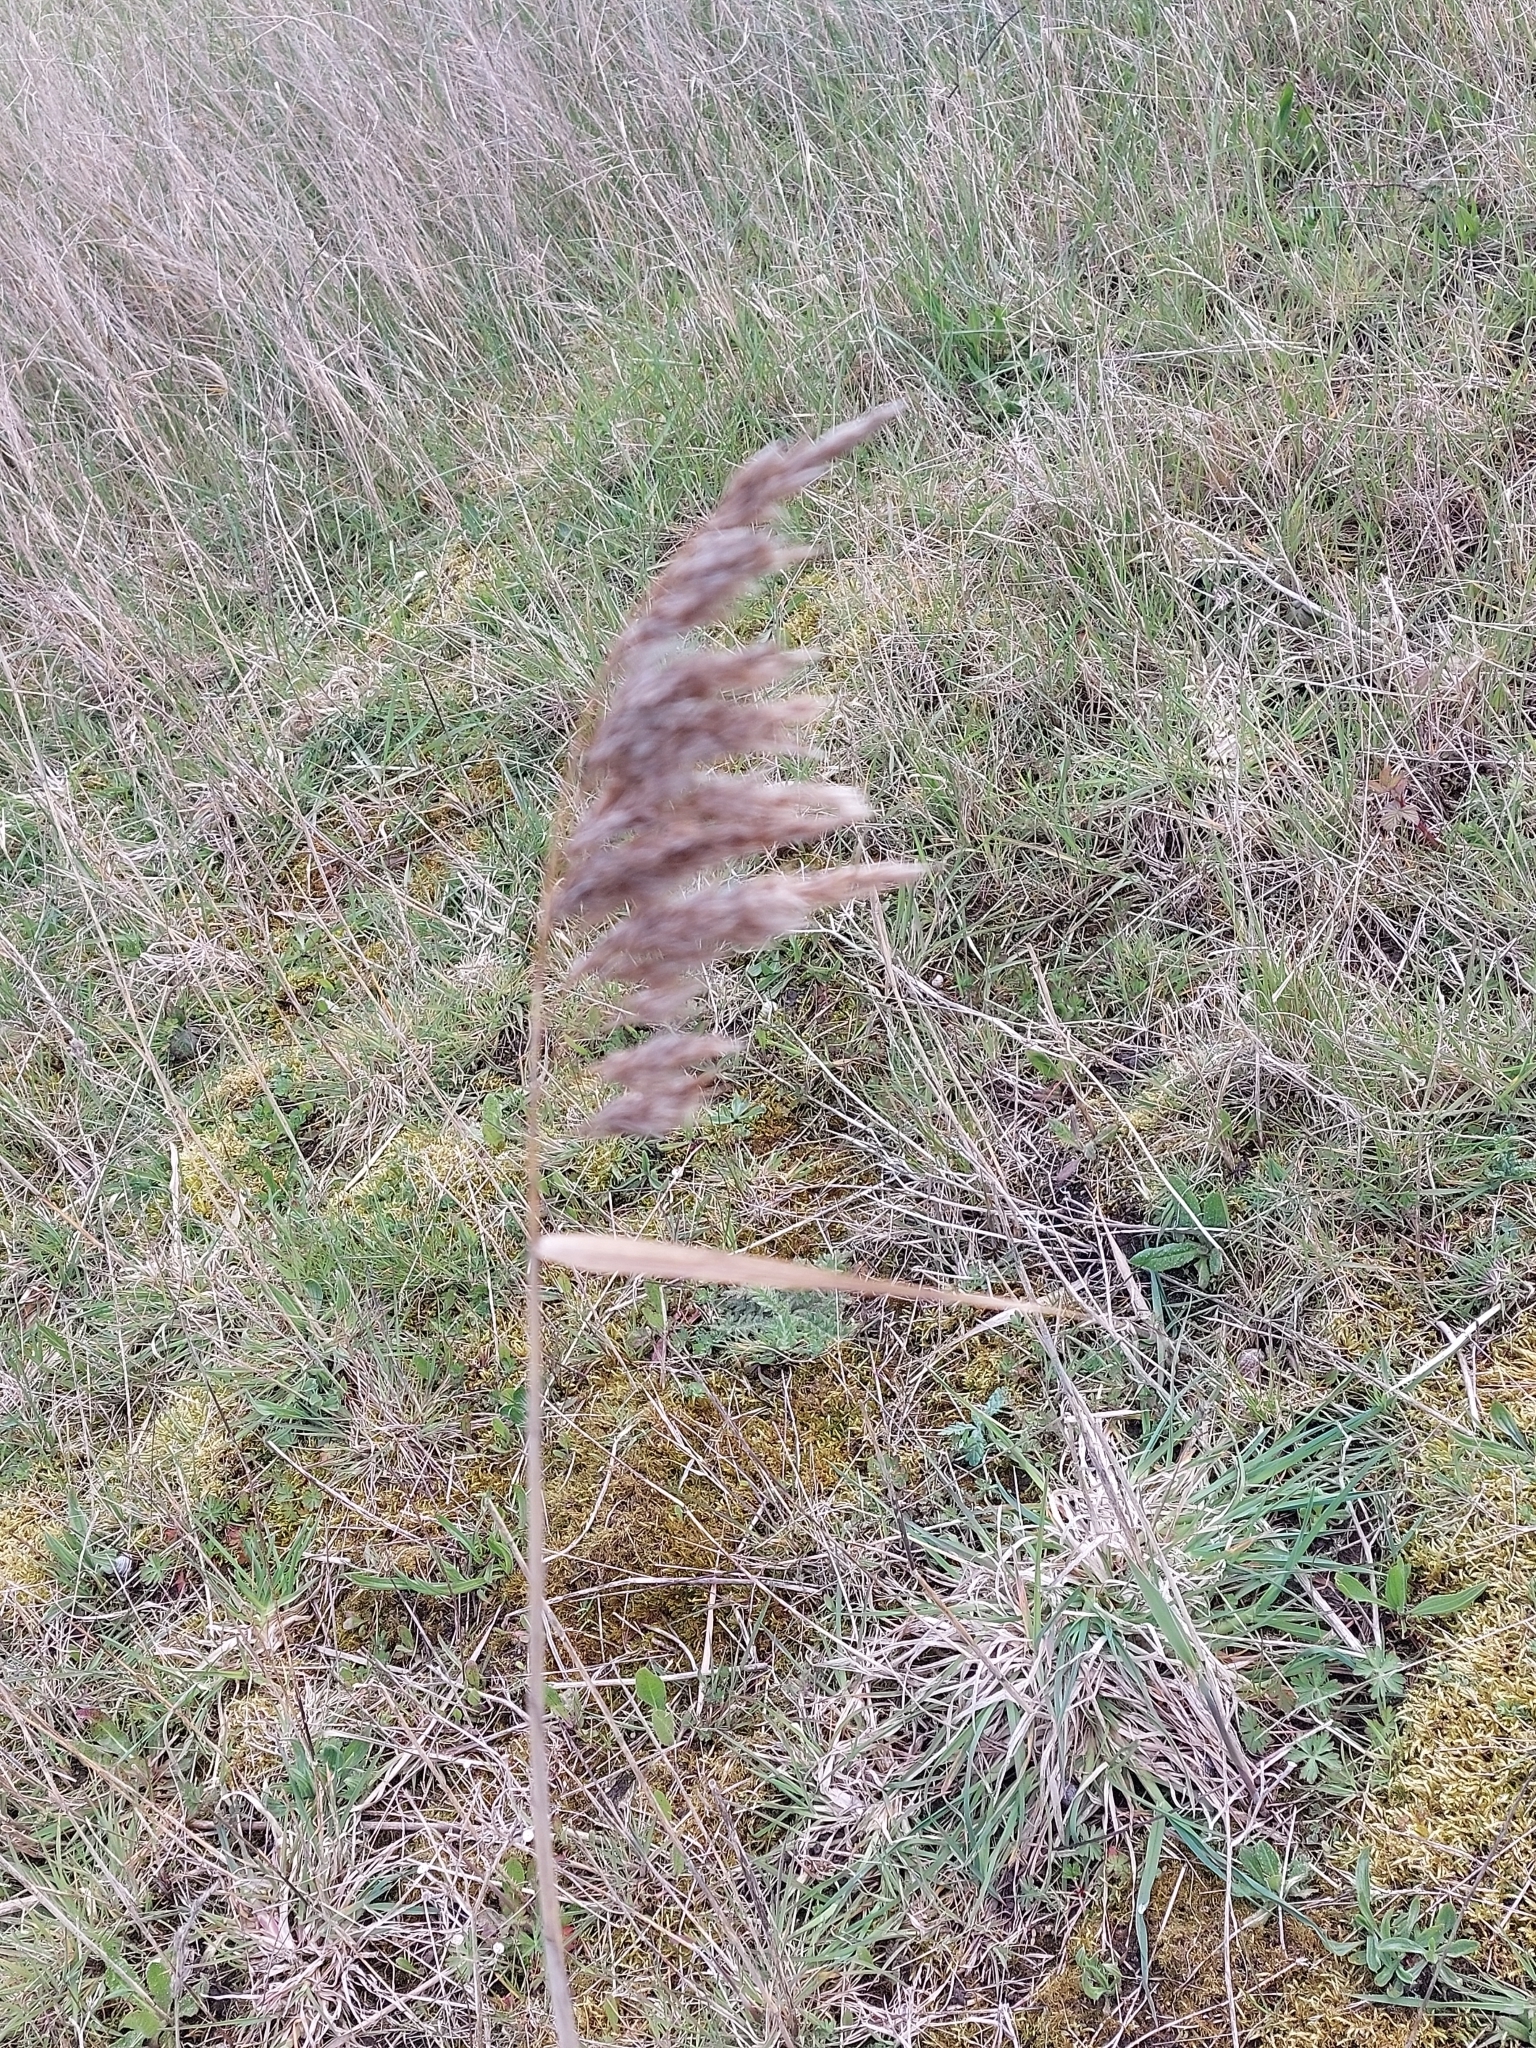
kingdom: Plantae
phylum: Tracheophyta
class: Liliopsida
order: Poales
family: Poaceae
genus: Phragmites
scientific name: Phragmites australis
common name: Common reed
